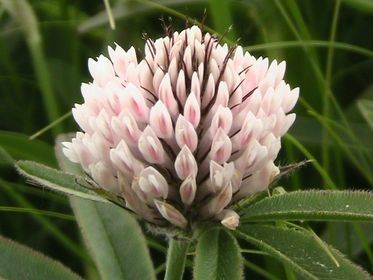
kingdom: Plantae
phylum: Tracheophyta
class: Magnoliopsida
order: Fabales
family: Fabaceae
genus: Trifolium
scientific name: Trifolium alpestre
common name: Owl-head clover
